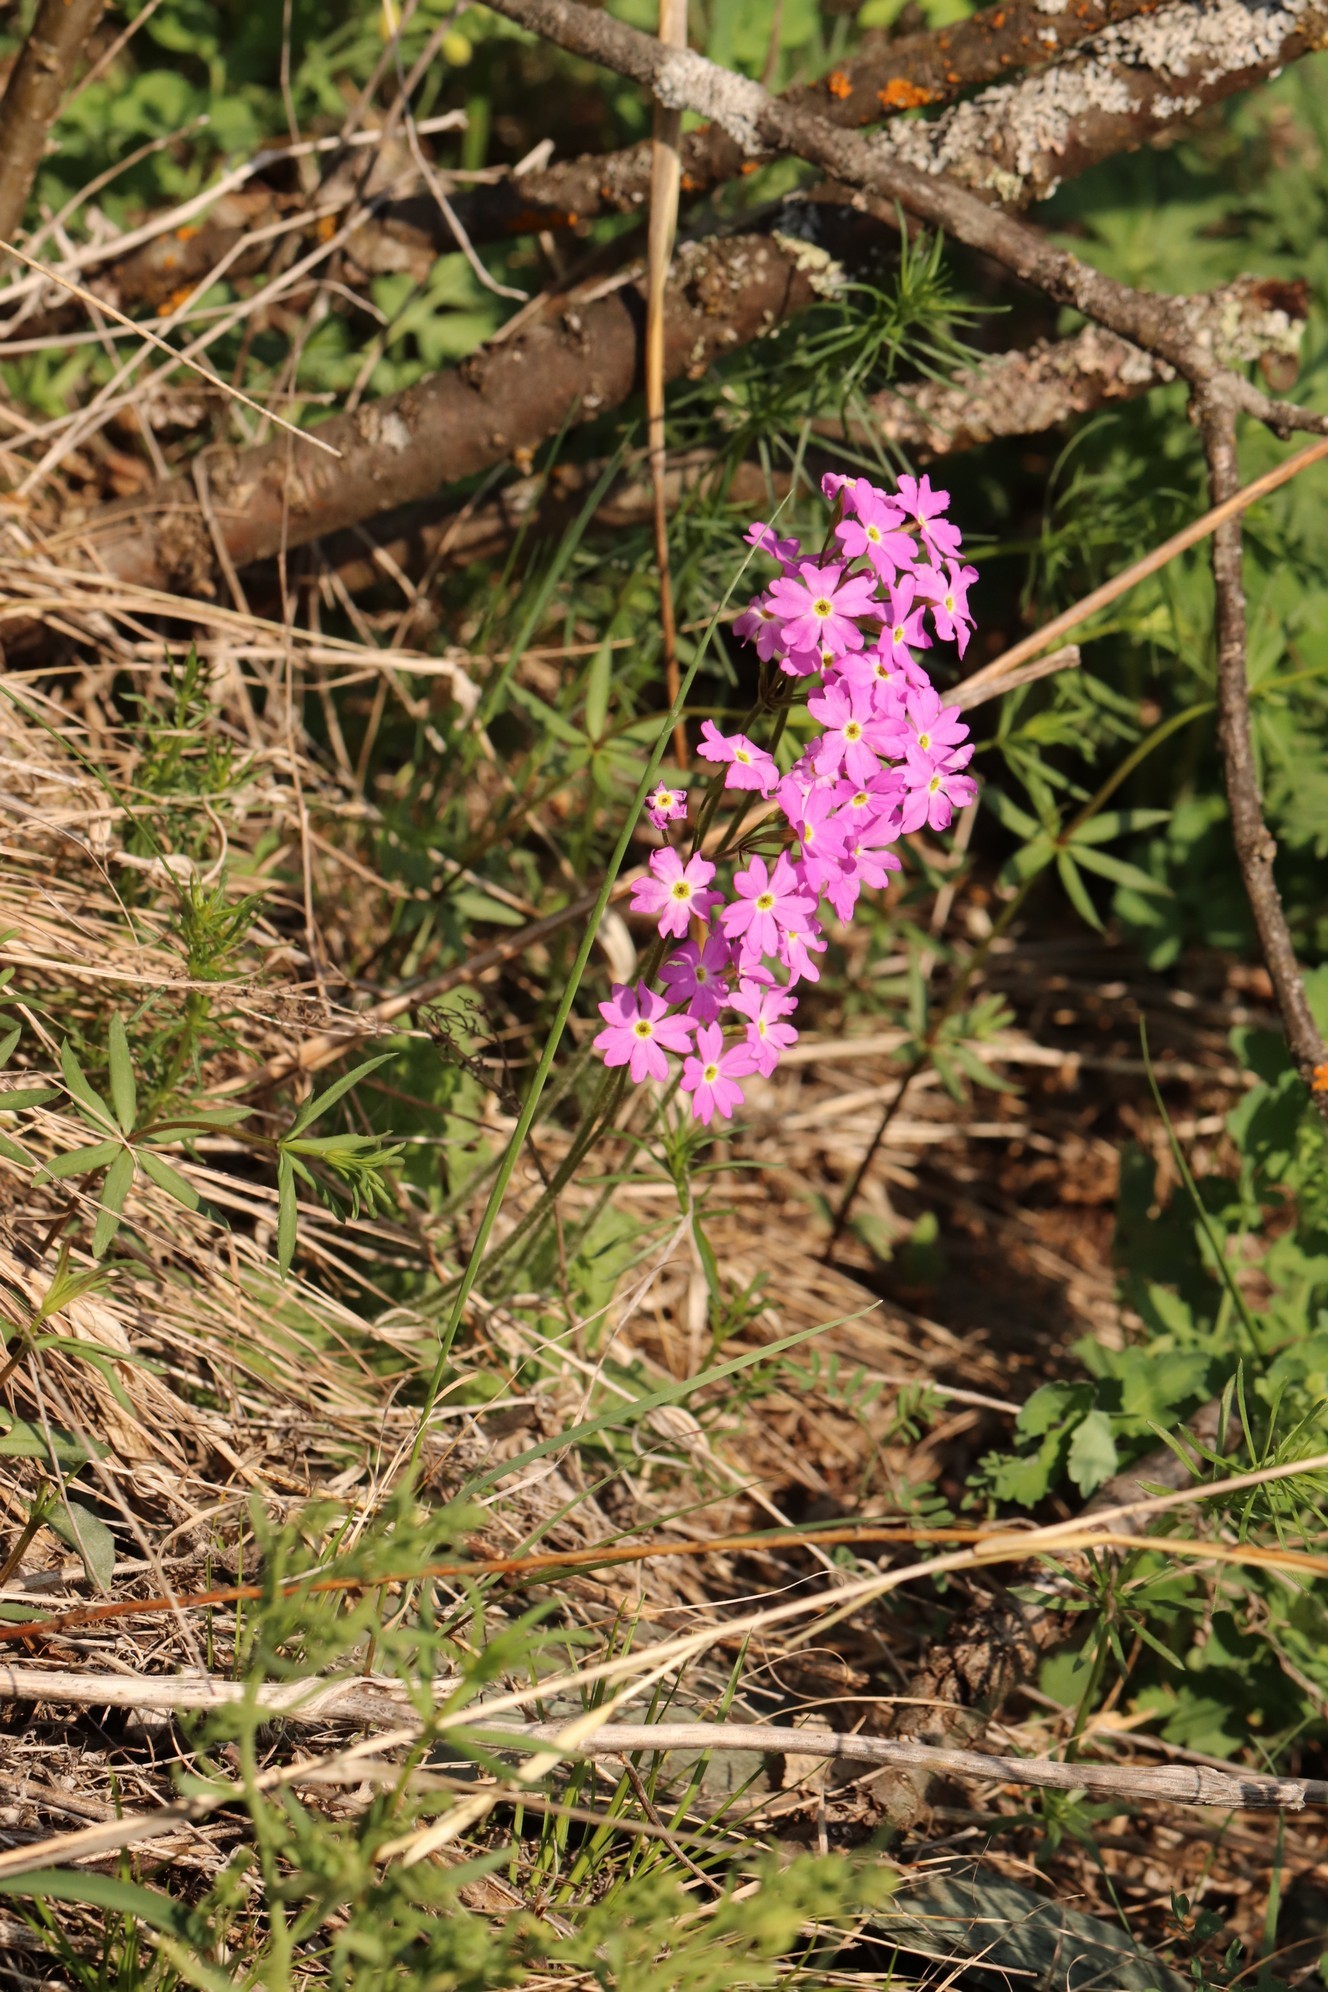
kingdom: Plantae
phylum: Tracheophyta
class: Magnoliopsida
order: Ericales
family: Primulaceae
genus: Primula
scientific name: Primula cortusoides
